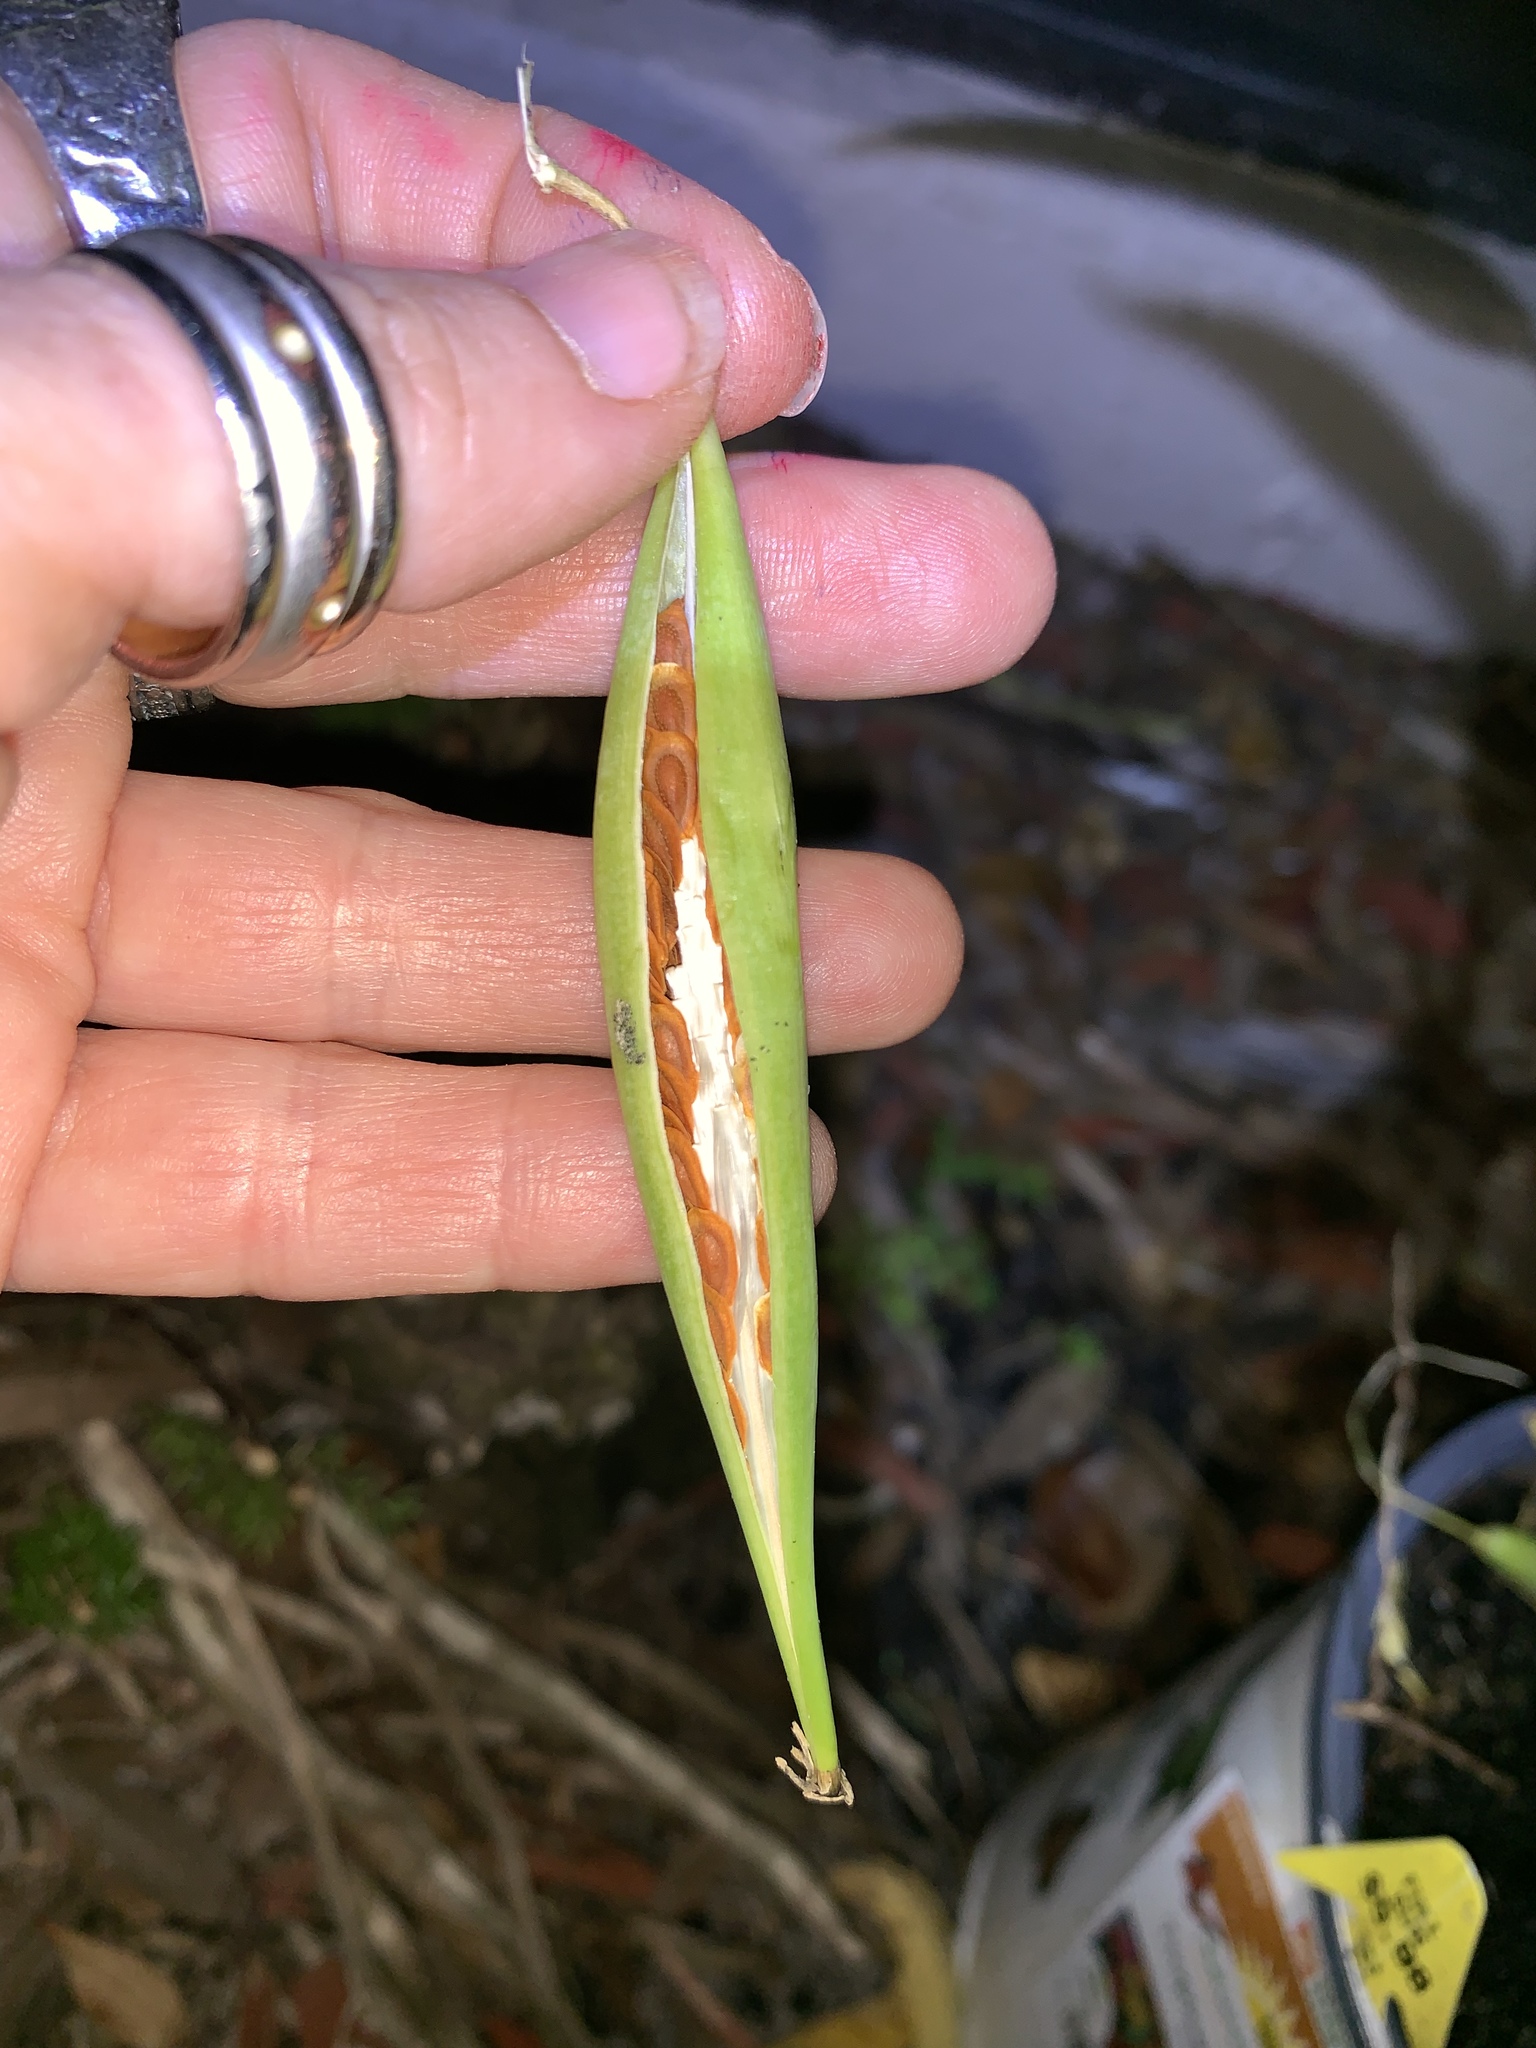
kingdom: Plantae
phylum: Tracheophyta
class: Magnoliopsida
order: Gentianales
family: Apocynaceae
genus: Asclepias
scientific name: Asclepias curassavica
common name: Bloodflower
